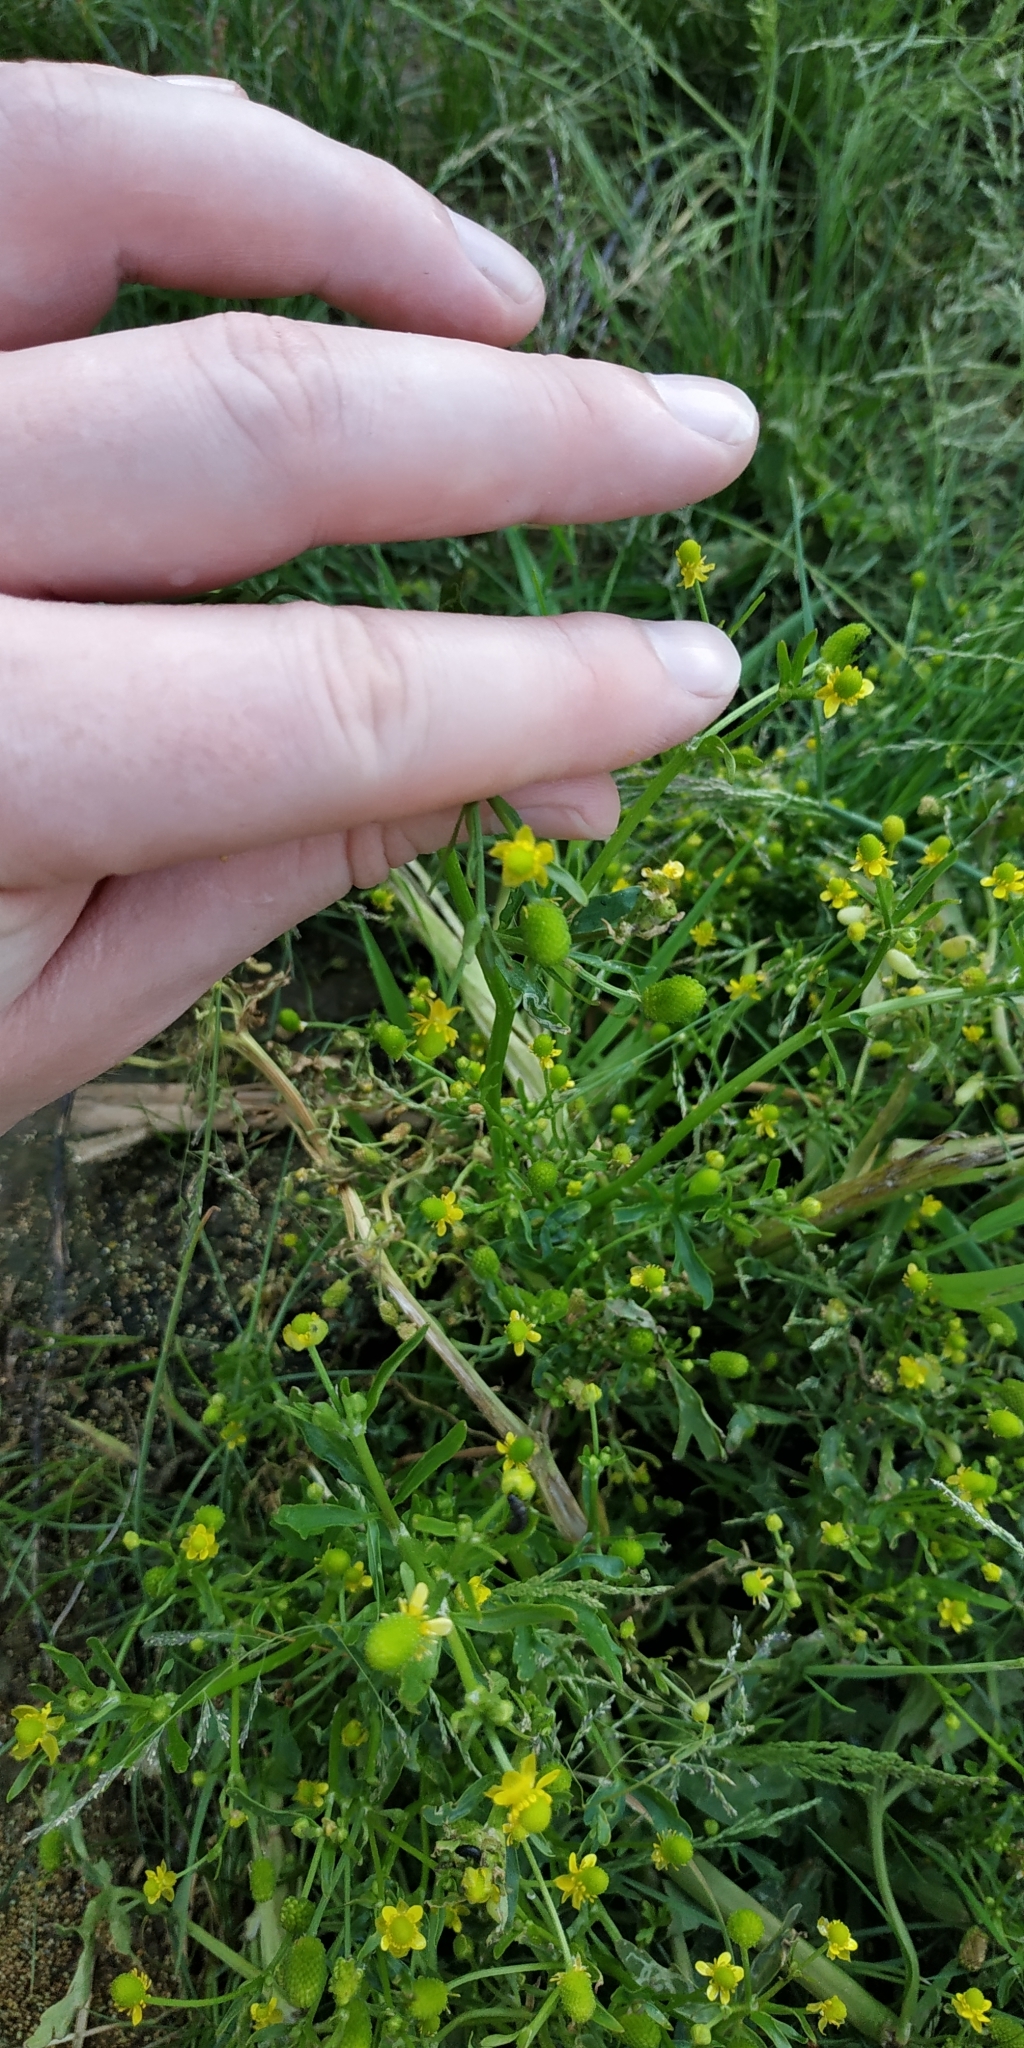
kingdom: Plantae
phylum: Tracheophyta
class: Magnoliopsida
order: Ranunculales
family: Ranunculaceae
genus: Ranunculus
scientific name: Ranunculus sceleratus
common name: Celery-leaved buttercup
